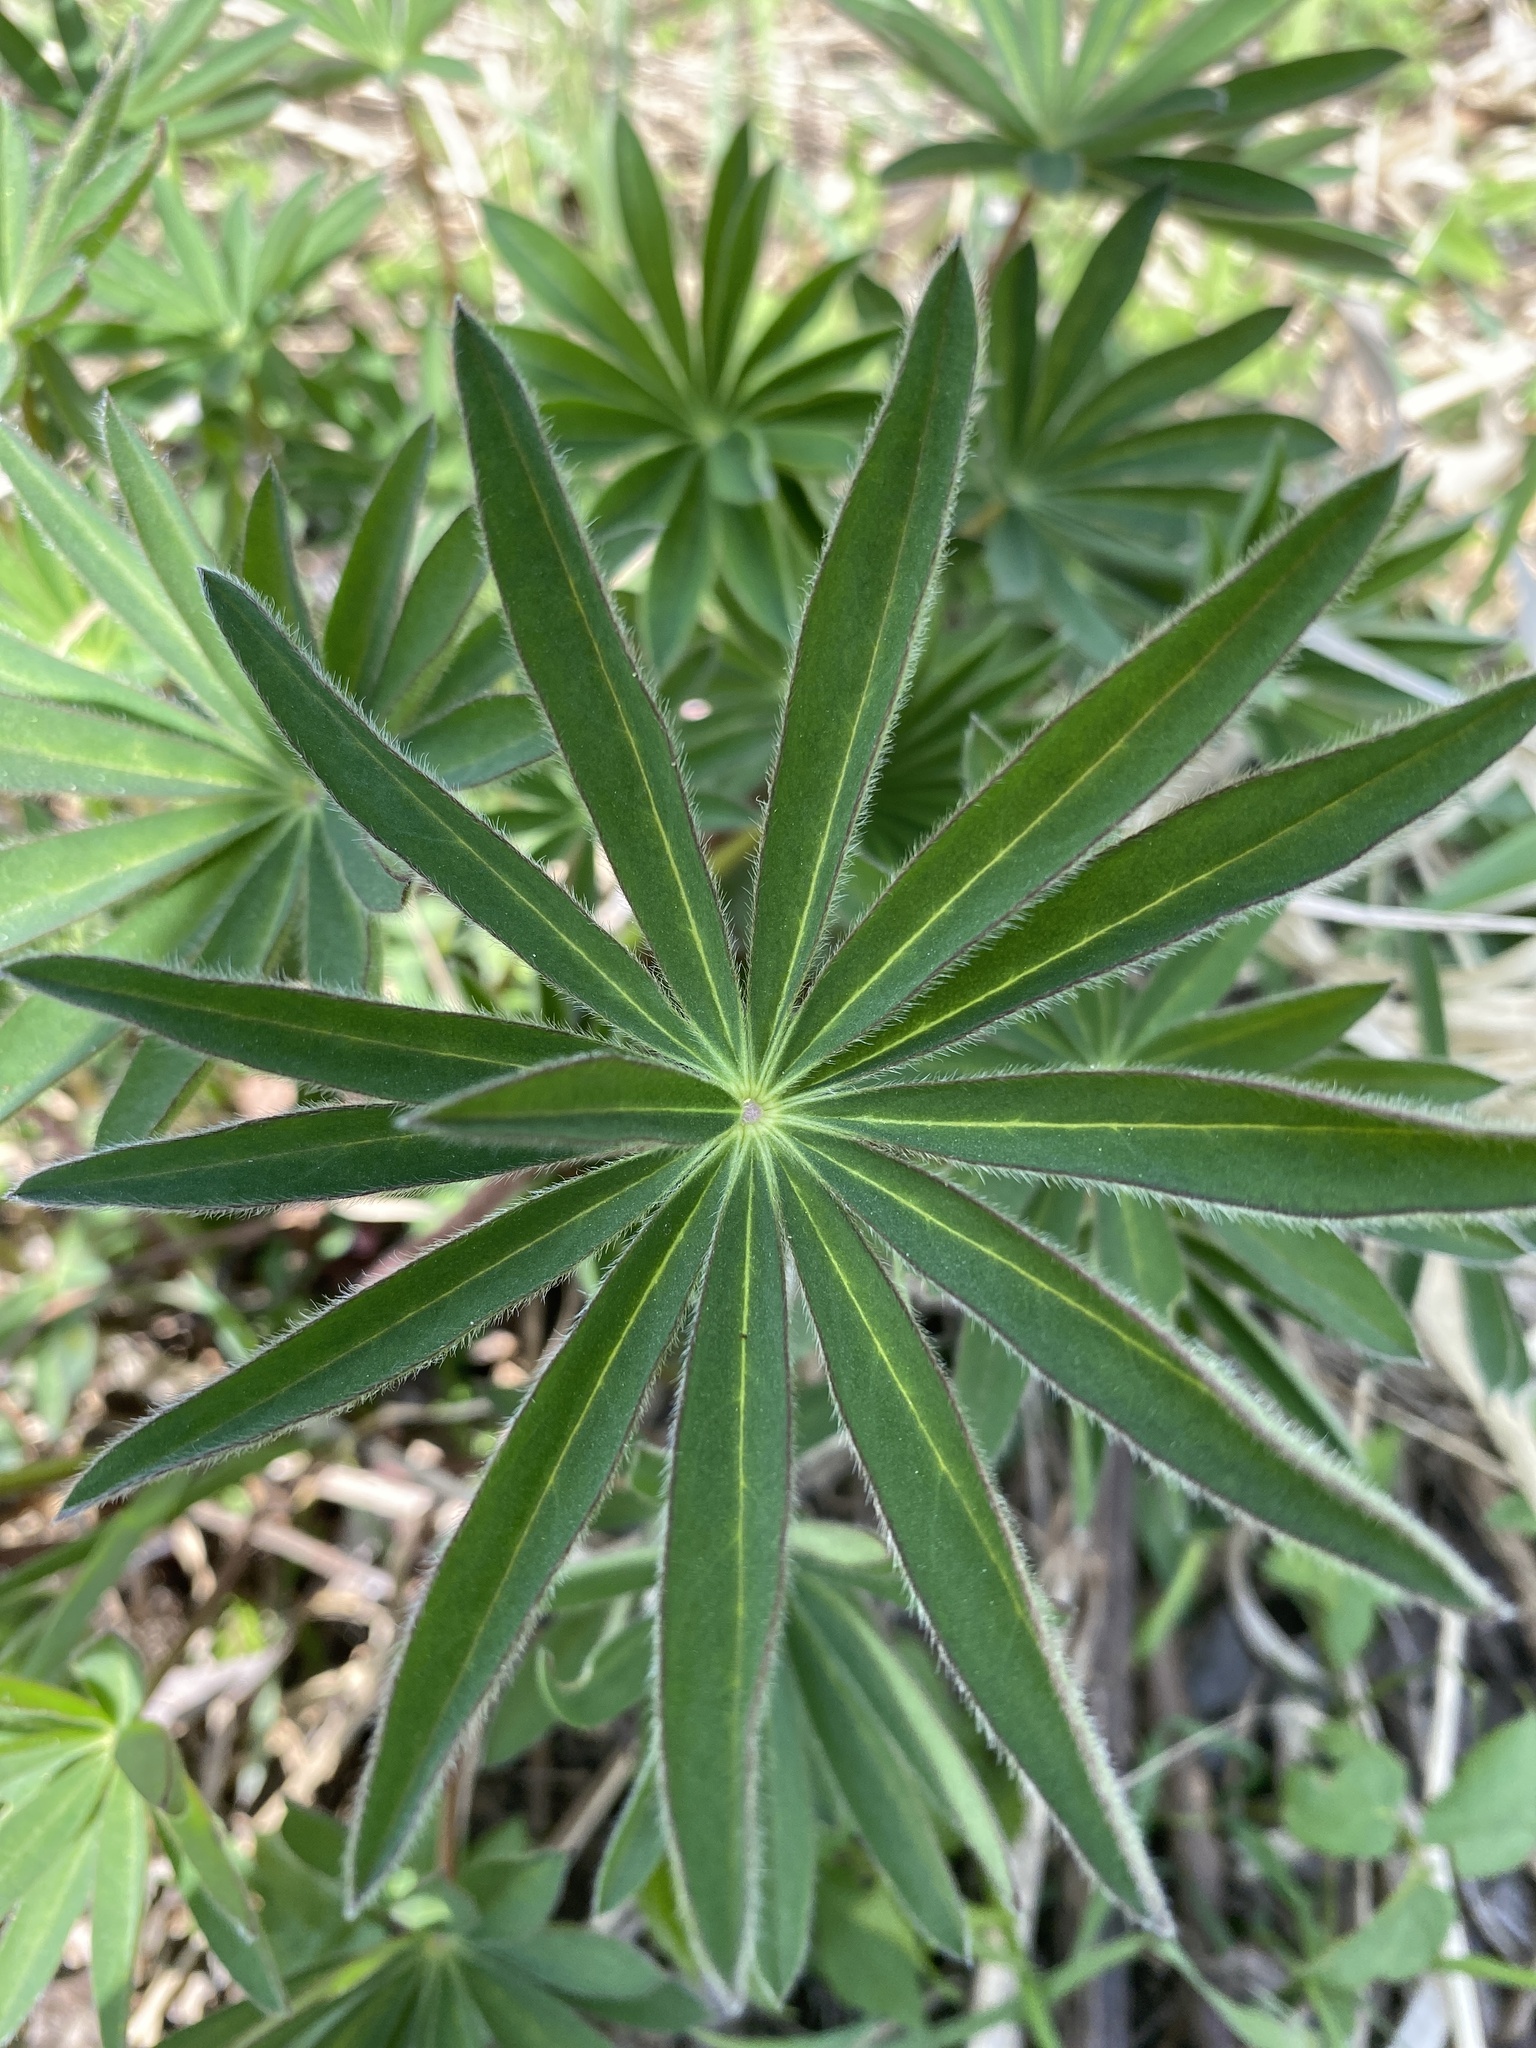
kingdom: Plantae
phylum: Tracheophyta
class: Magnoliopsida
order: Fabales
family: Fabaceae
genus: Lupinus
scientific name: Lupinus polyphyllus
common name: Garden lupin
